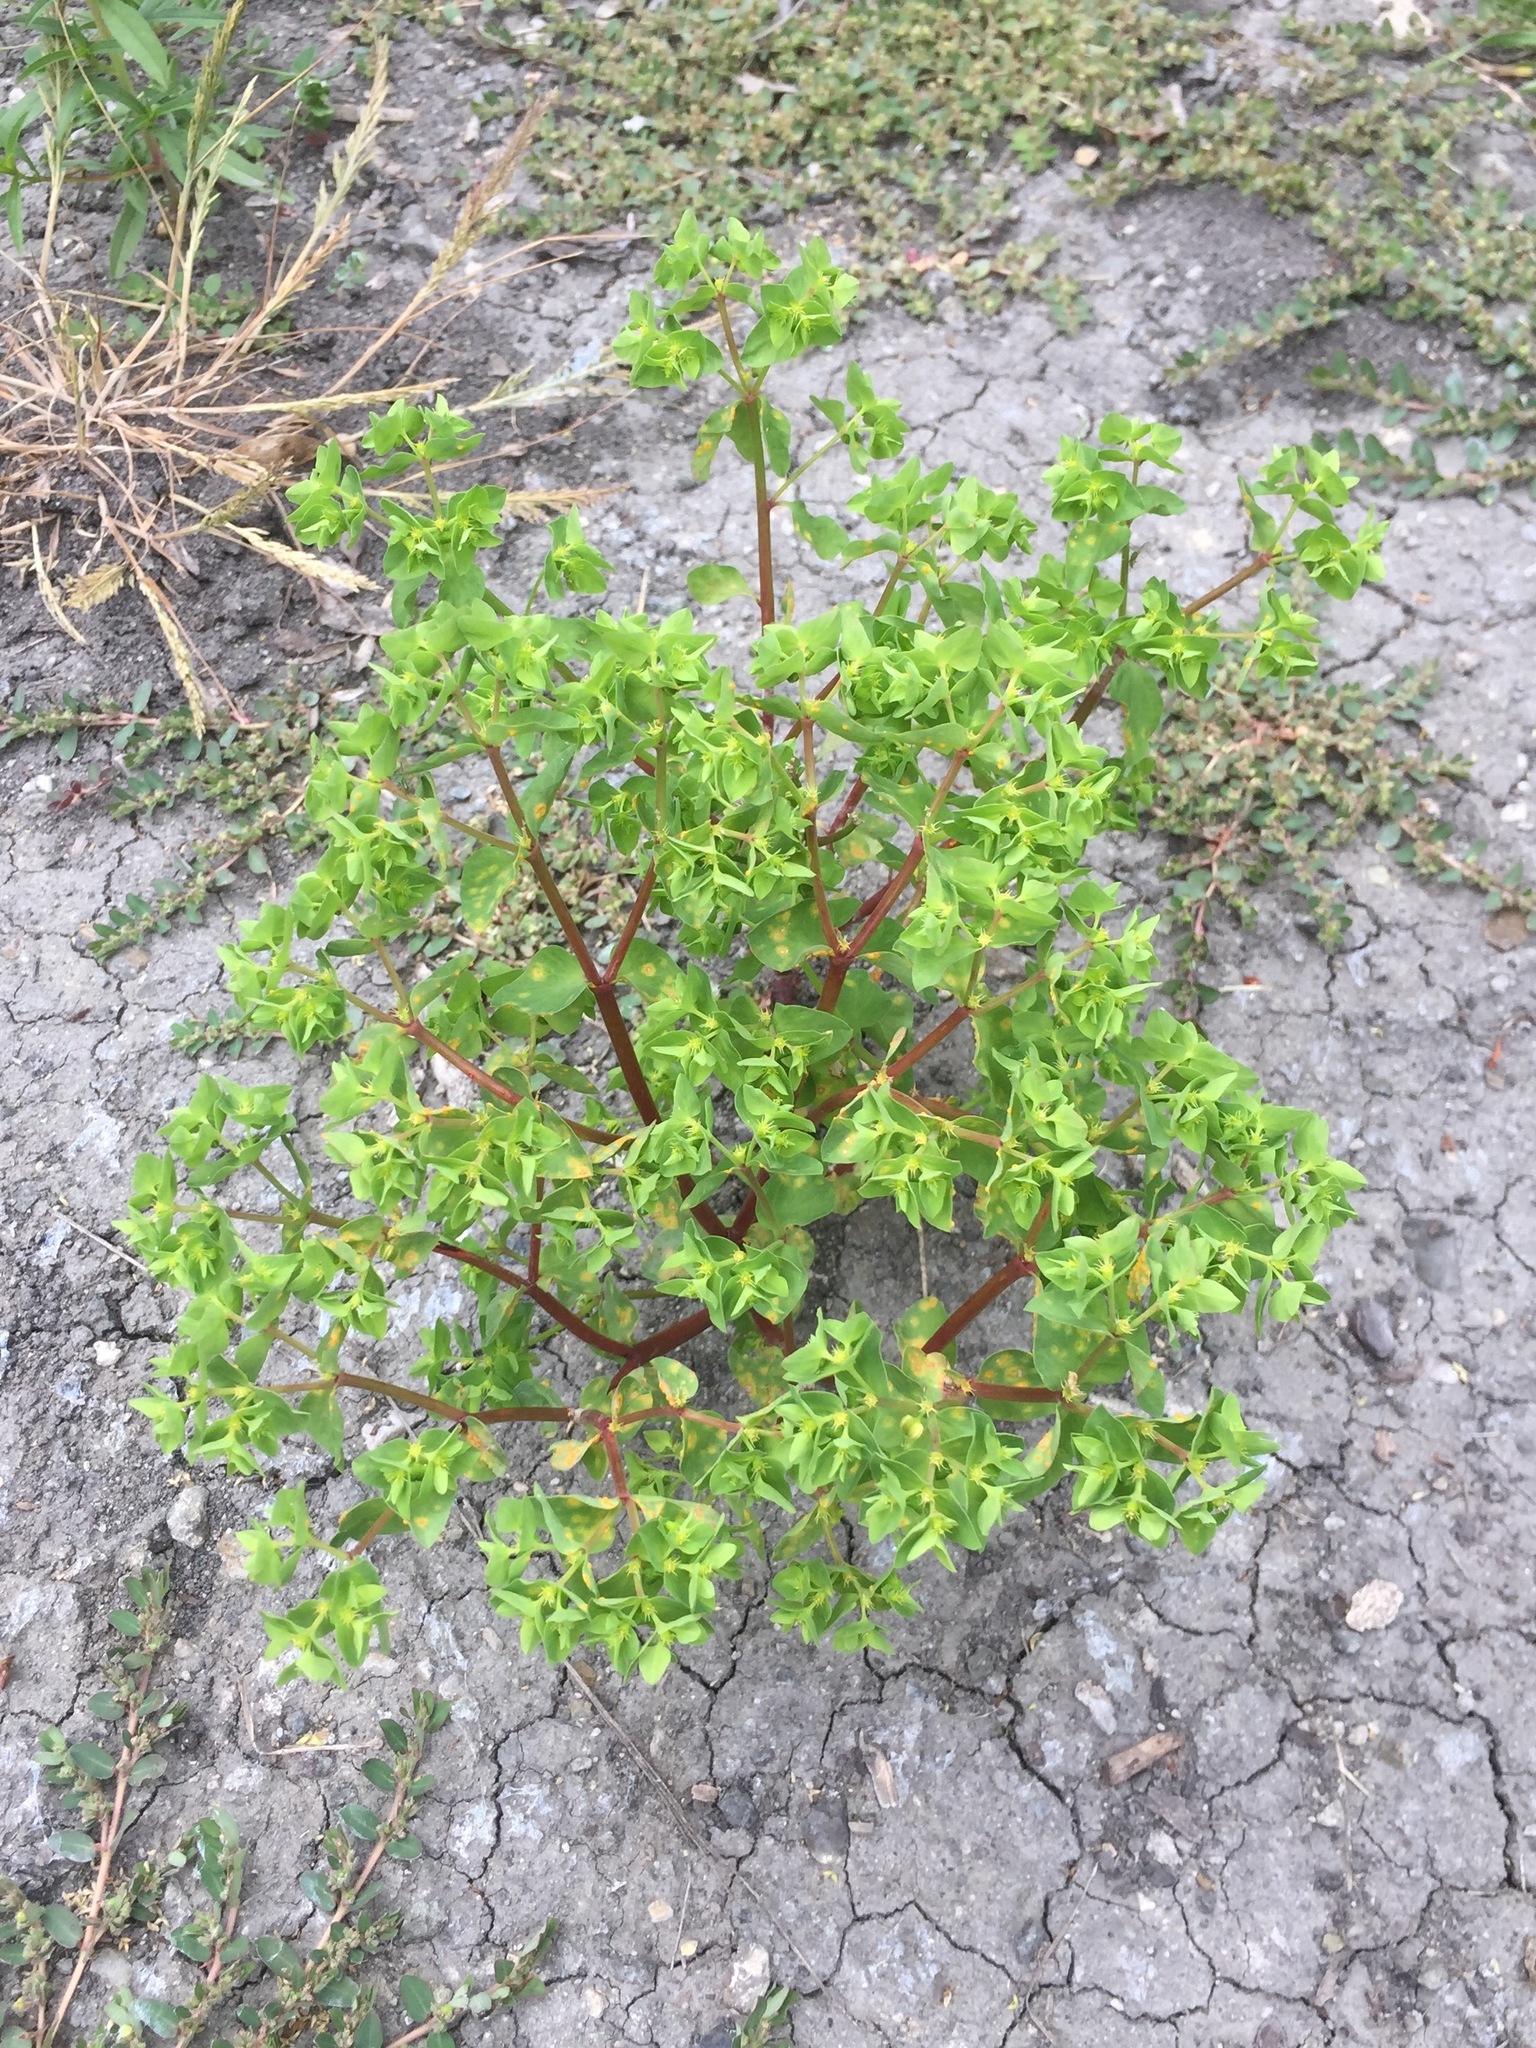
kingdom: Plantae
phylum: Tracheophyta
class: Magnoliopsida
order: Malpighiales
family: Euphorbiaceae
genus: Euphorbia
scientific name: Euphorbia peplus
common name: Petty spurge
